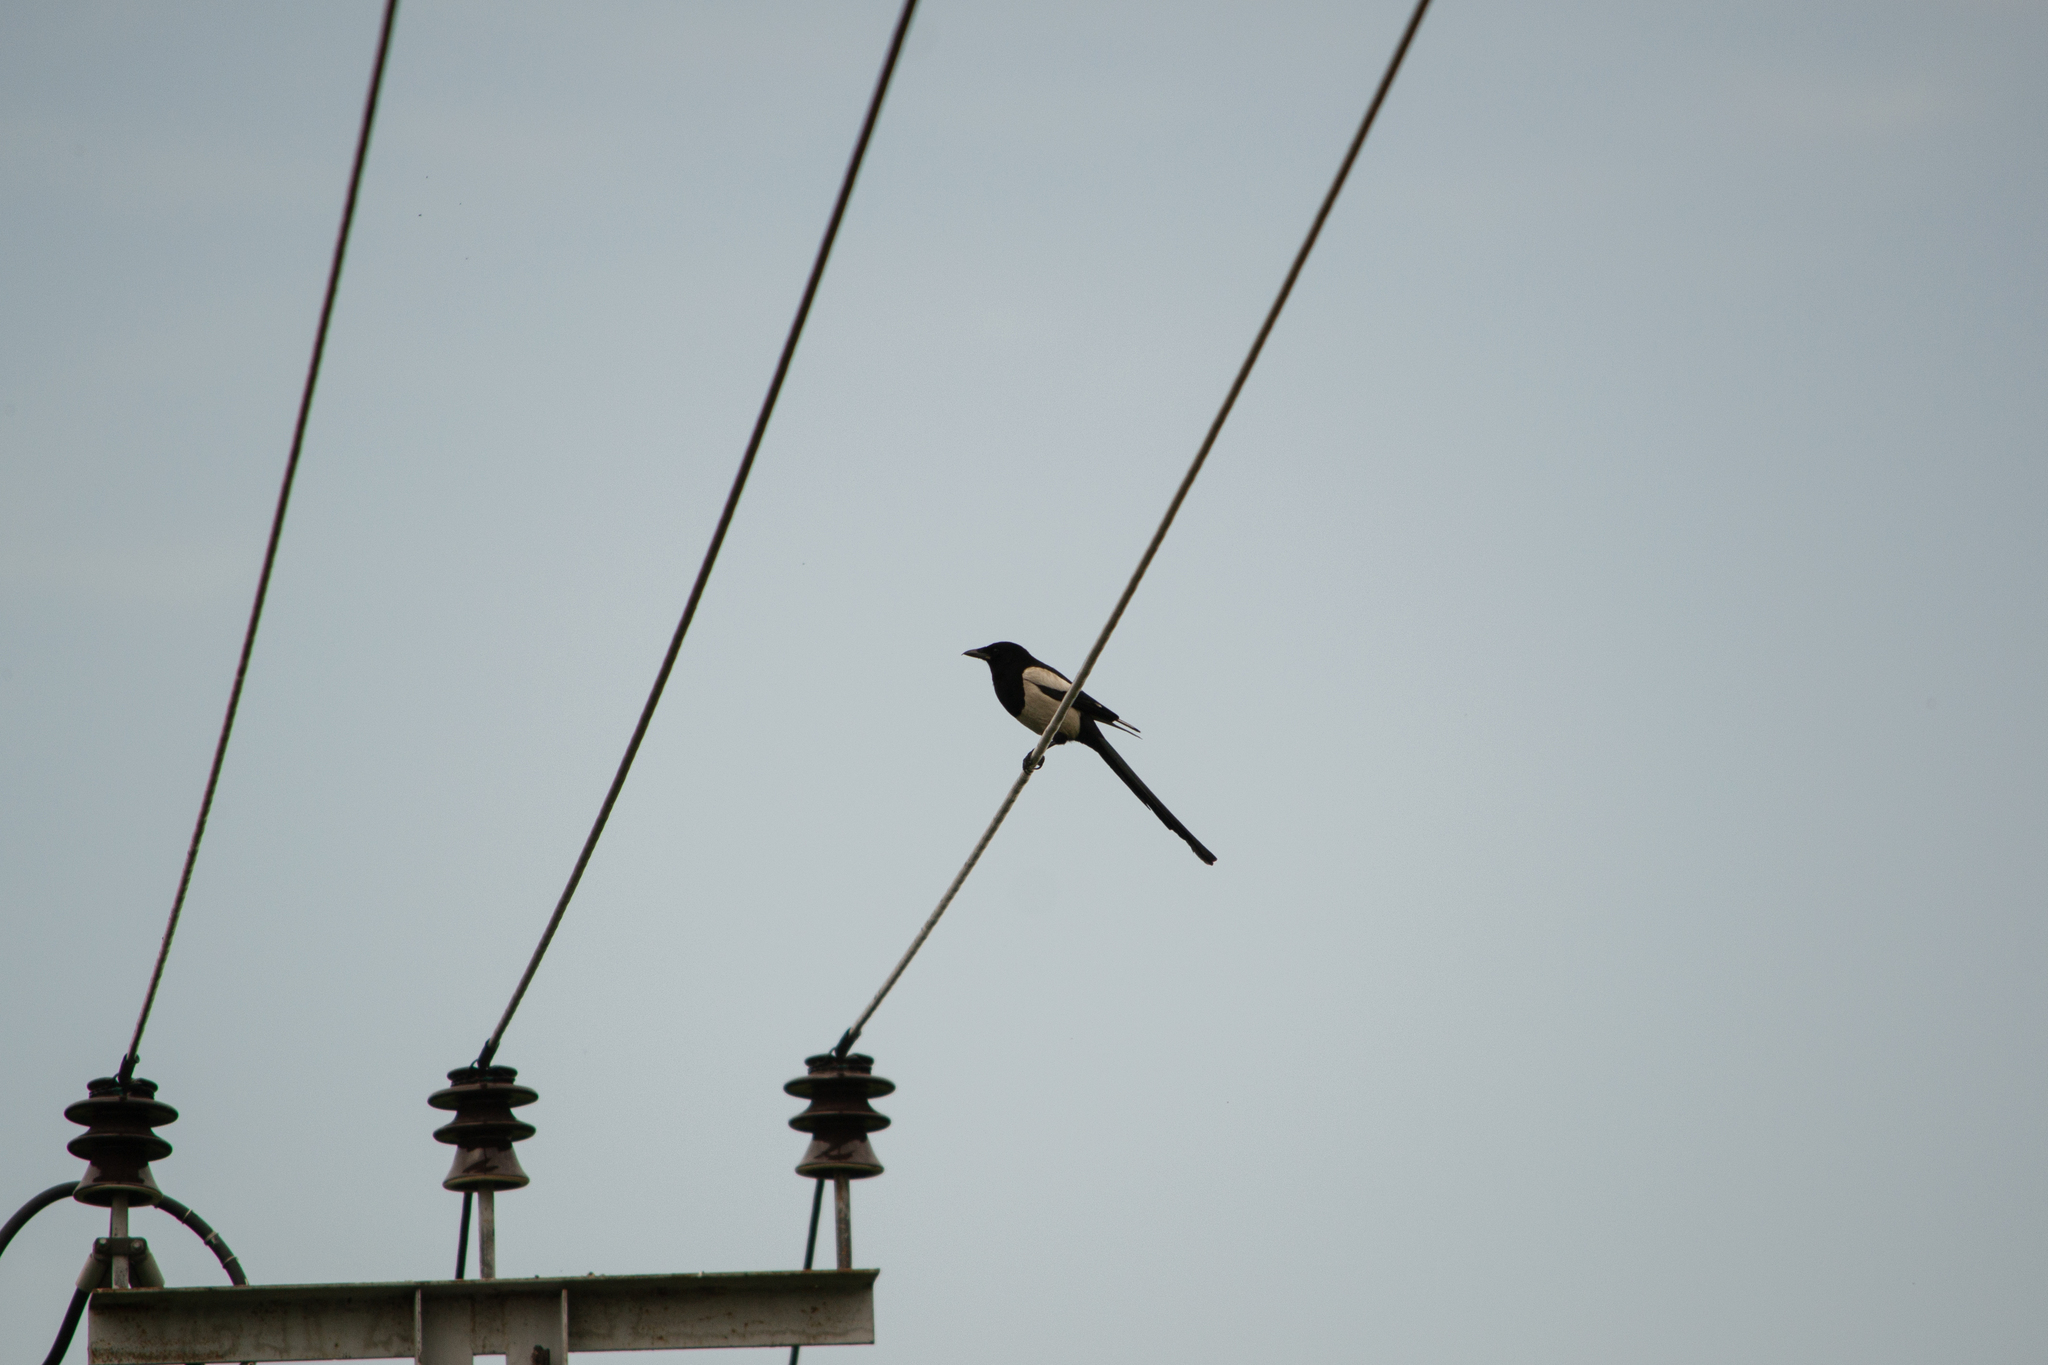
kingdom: Animalia
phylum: Chordata
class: Aves
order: Passeriformes
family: Corvidae
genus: Pica
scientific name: Pica pica
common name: Eurasian magpie
